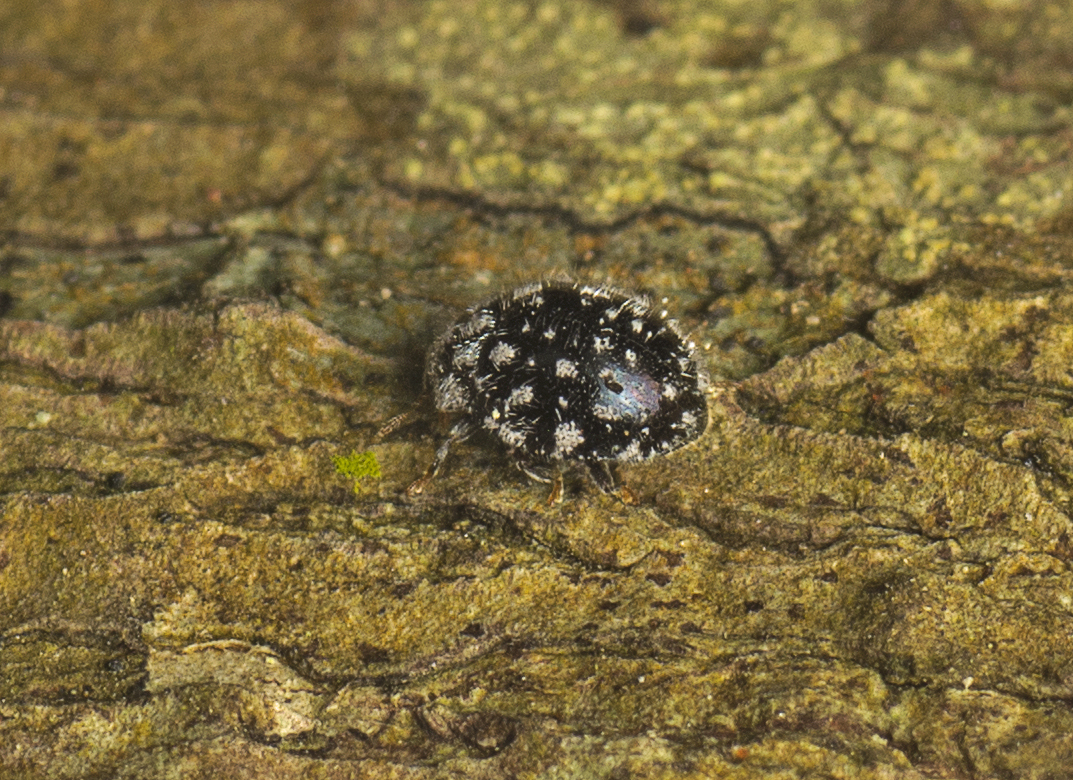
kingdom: Animalia
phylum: Arthropoda
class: Insecta
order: Coleoptera
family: Coccinellidae
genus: Rhyzobius
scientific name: Rhyzobius
